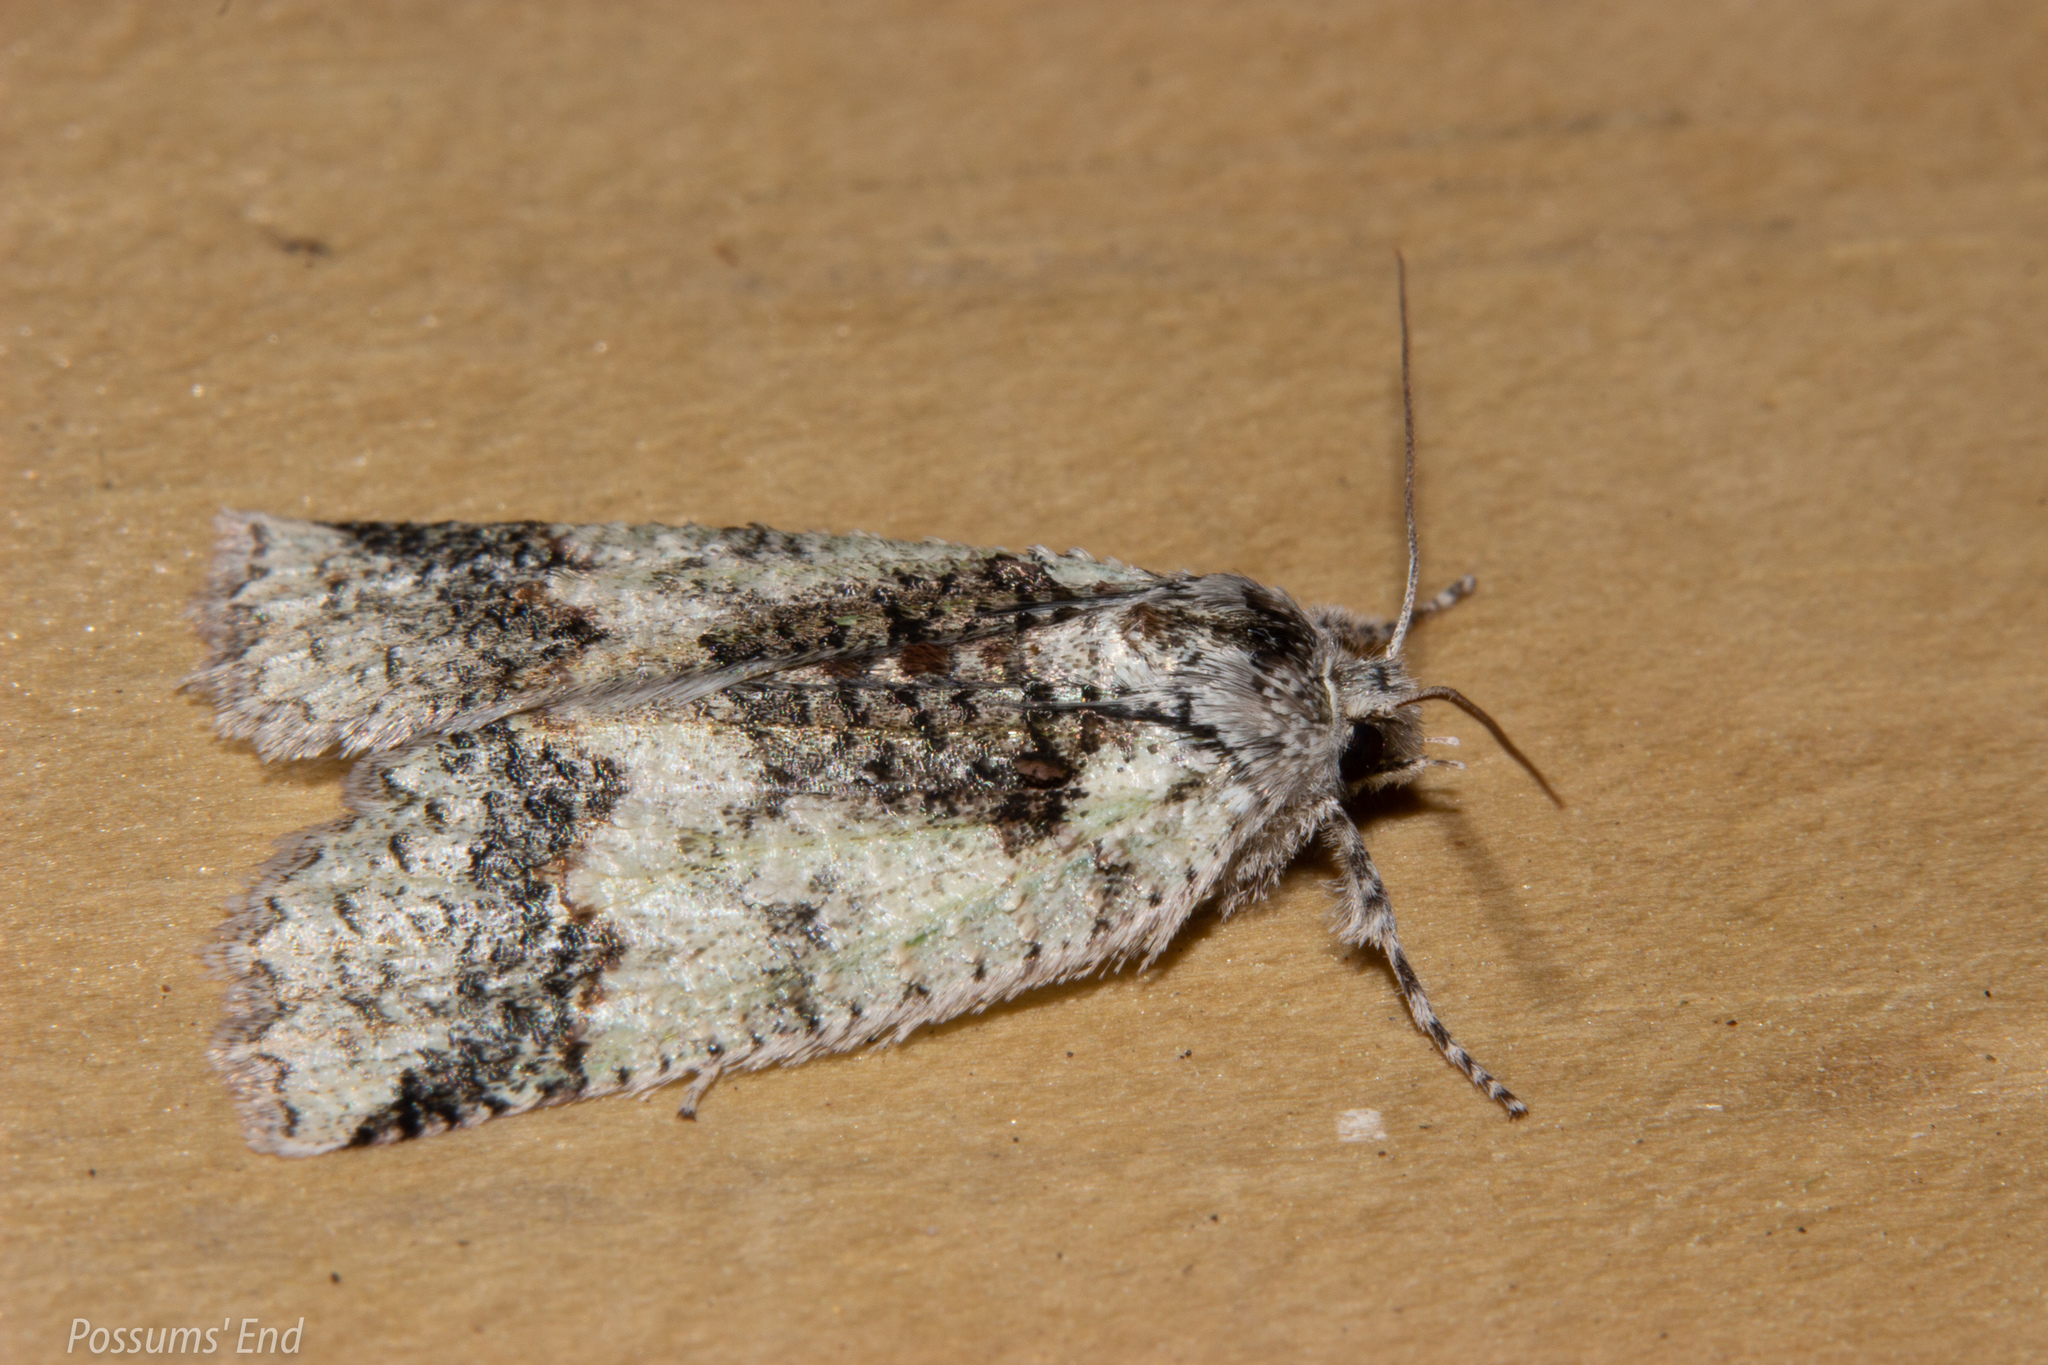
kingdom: Animalia
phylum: Arthropoda
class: Insecta
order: Lepidoptera
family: Geometridae
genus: Declana
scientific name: Declana floccosa
